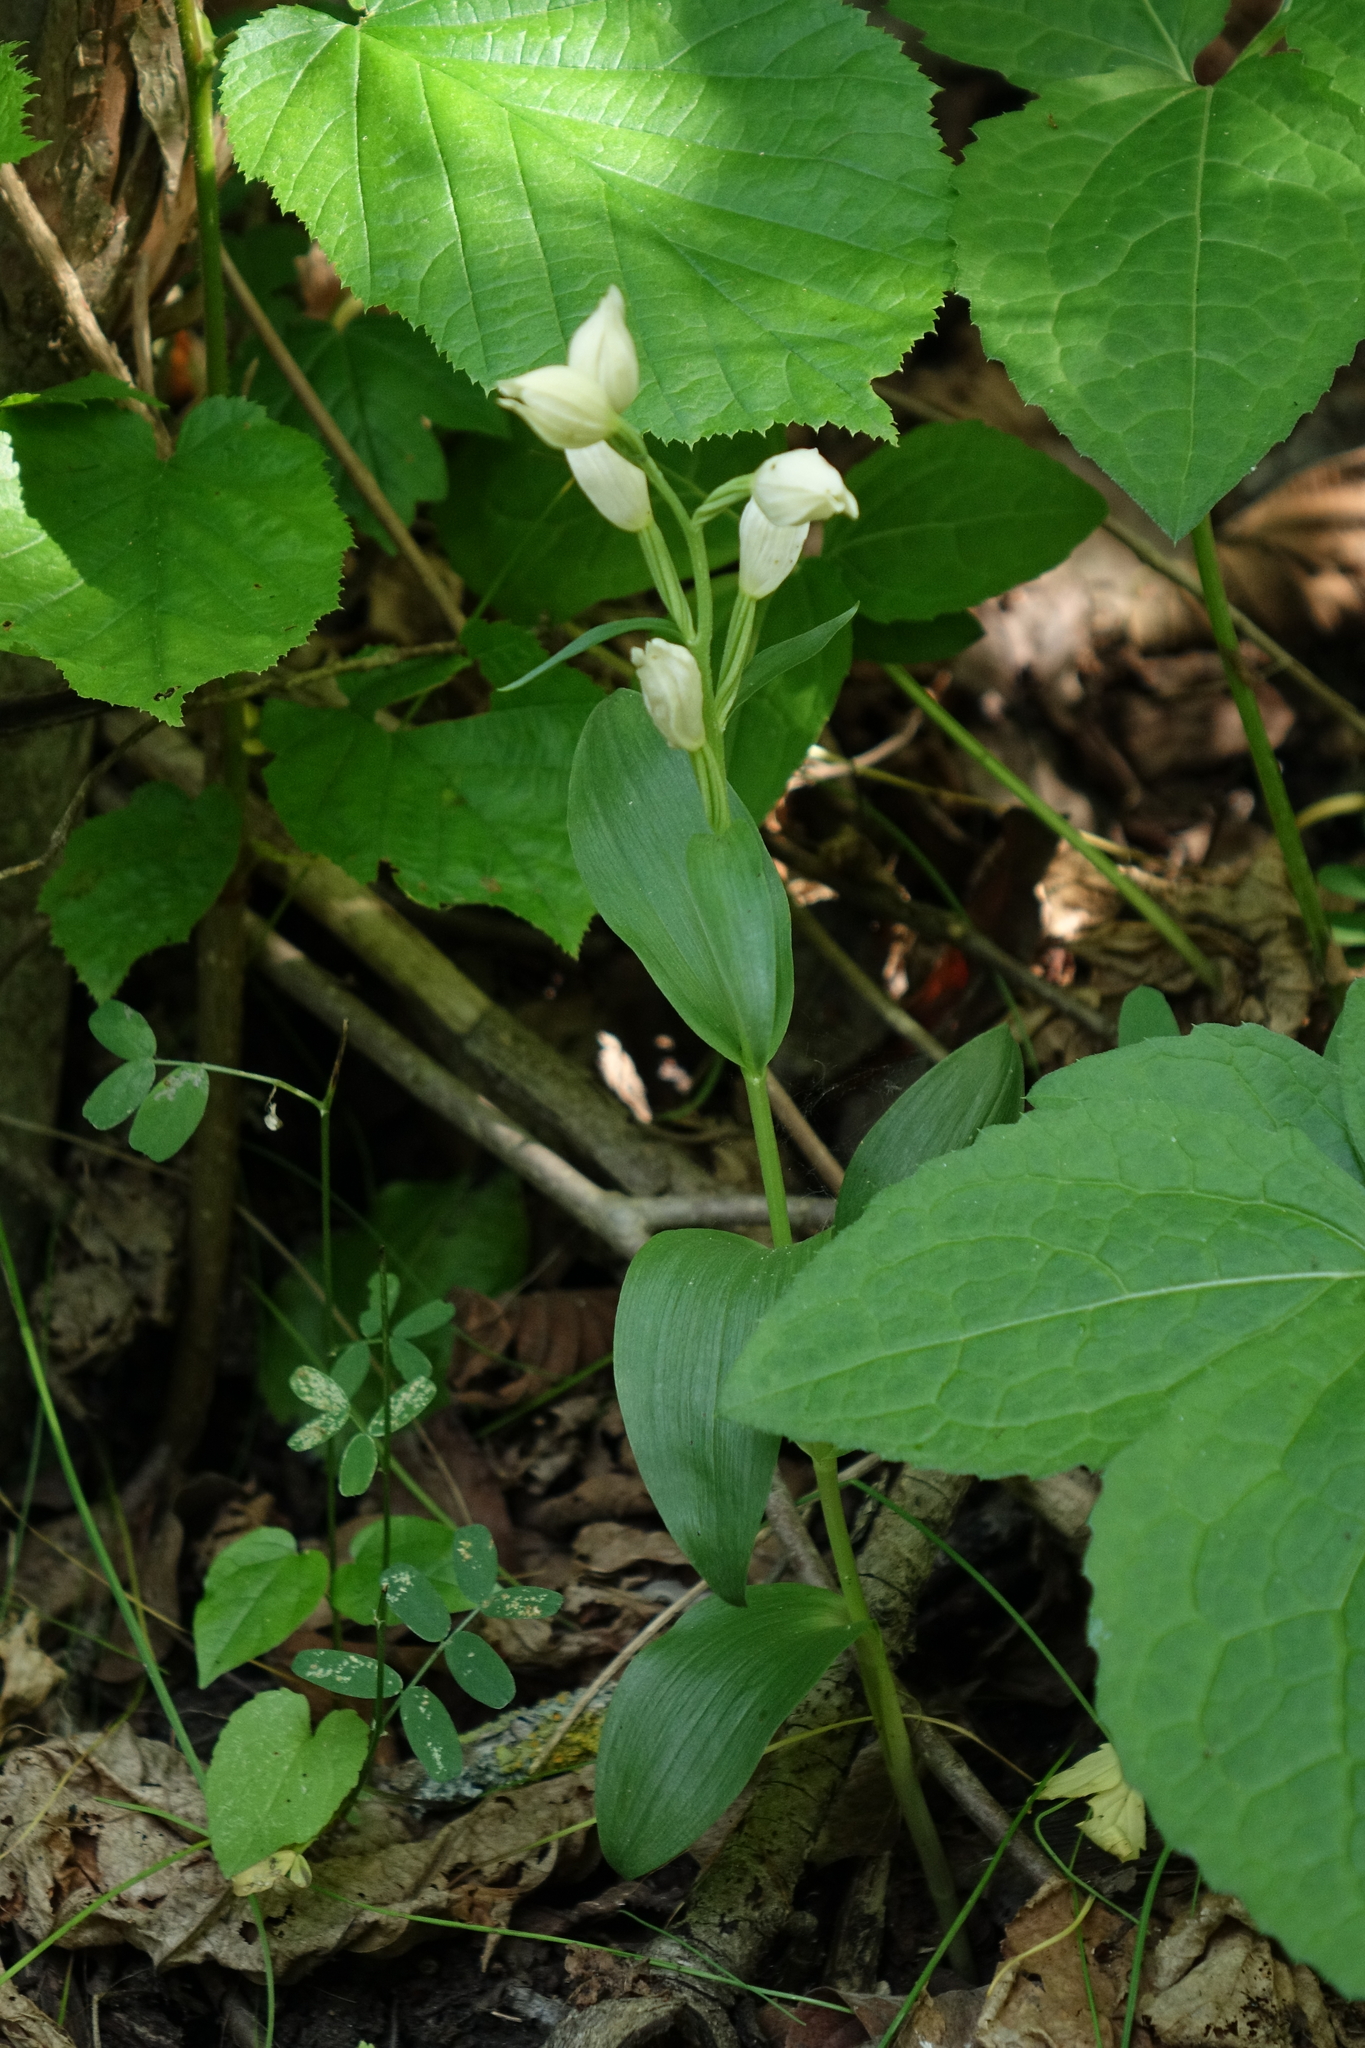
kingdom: Plantae
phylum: Tracheophyta
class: Liliopsida
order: Asparagales
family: Orchidaceae
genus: Cephalanthera
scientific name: Cephalanthera damasonium
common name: White helleborine
